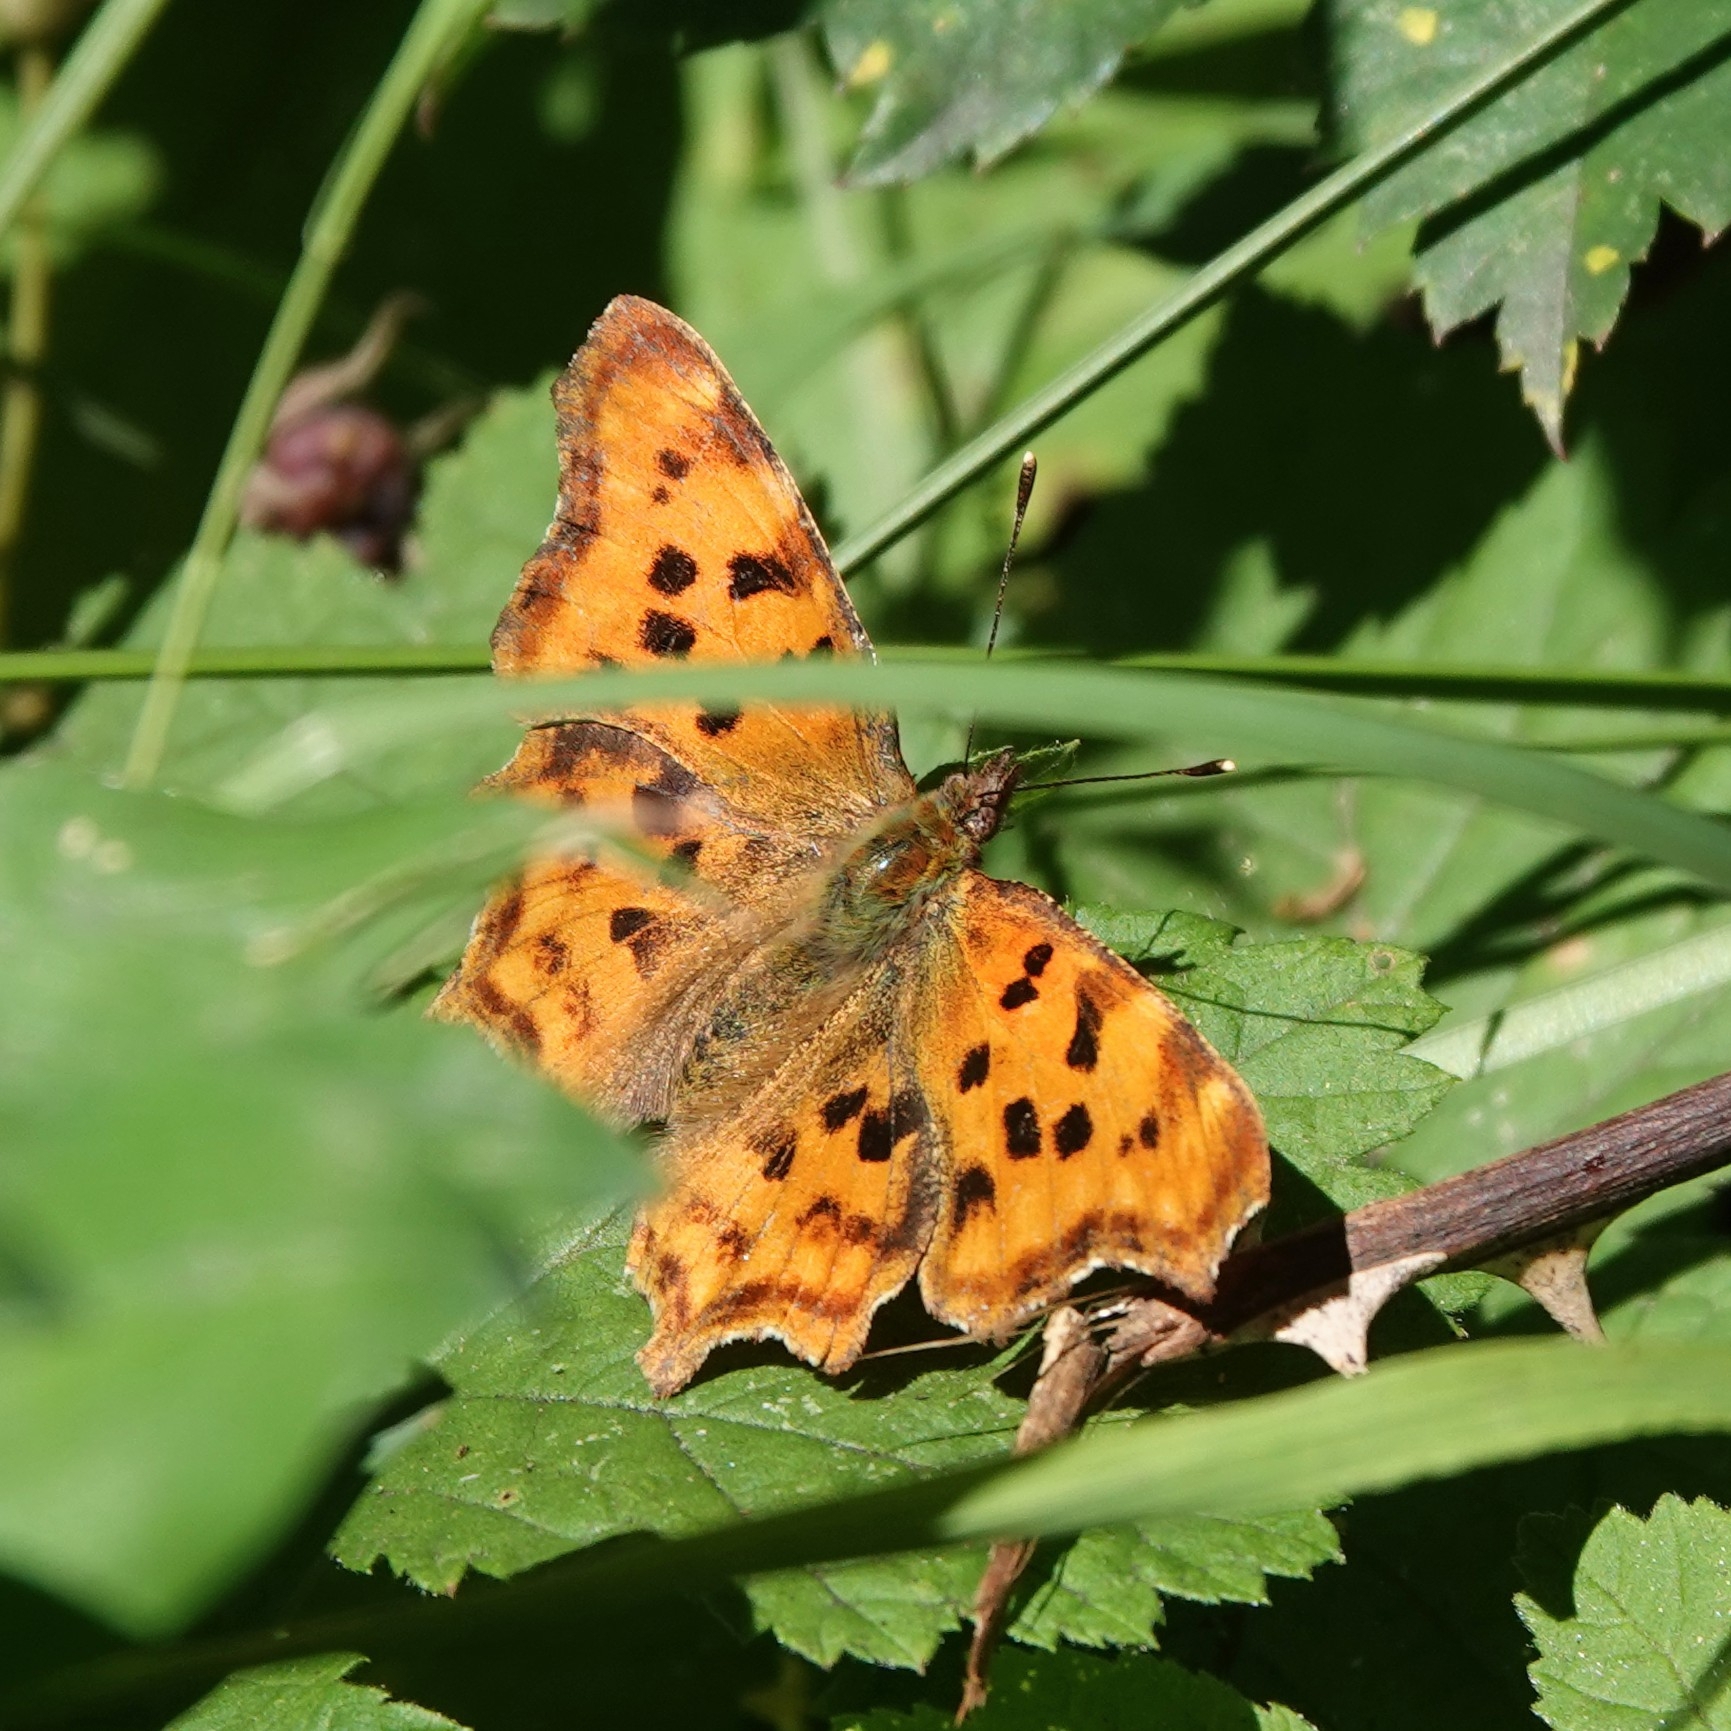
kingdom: Animalia
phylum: Arthropoda
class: Insecta
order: Lepidoptera
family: Nymphalidae
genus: Polygonia
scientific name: Polygonia c-album
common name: Comma
